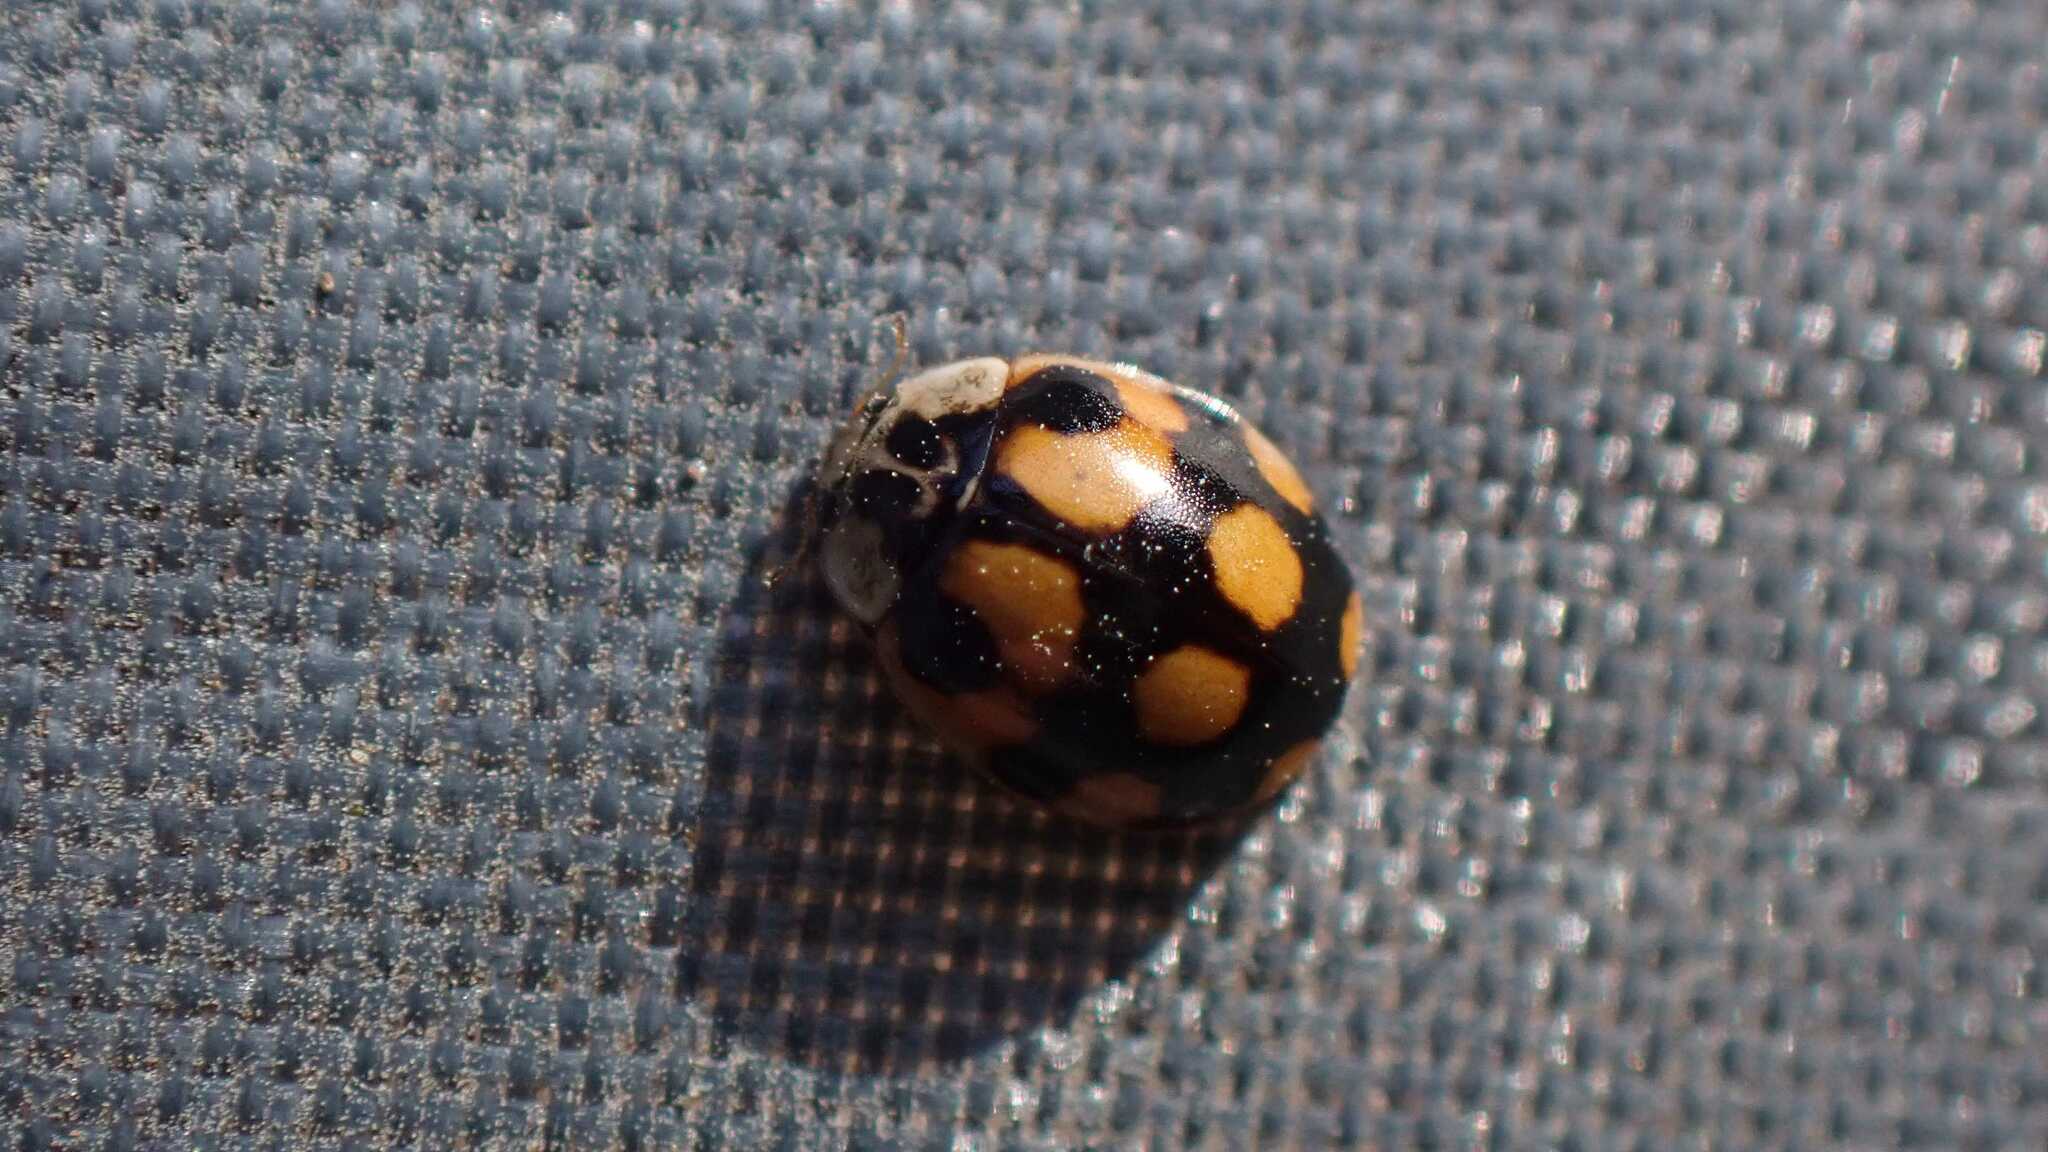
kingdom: Animalia
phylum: Arthropoda
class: Insecta
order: Coleoptera
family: Coccinellidae
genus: Adalia
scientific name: Adalia decempunctata
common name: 10-spot ladybird
